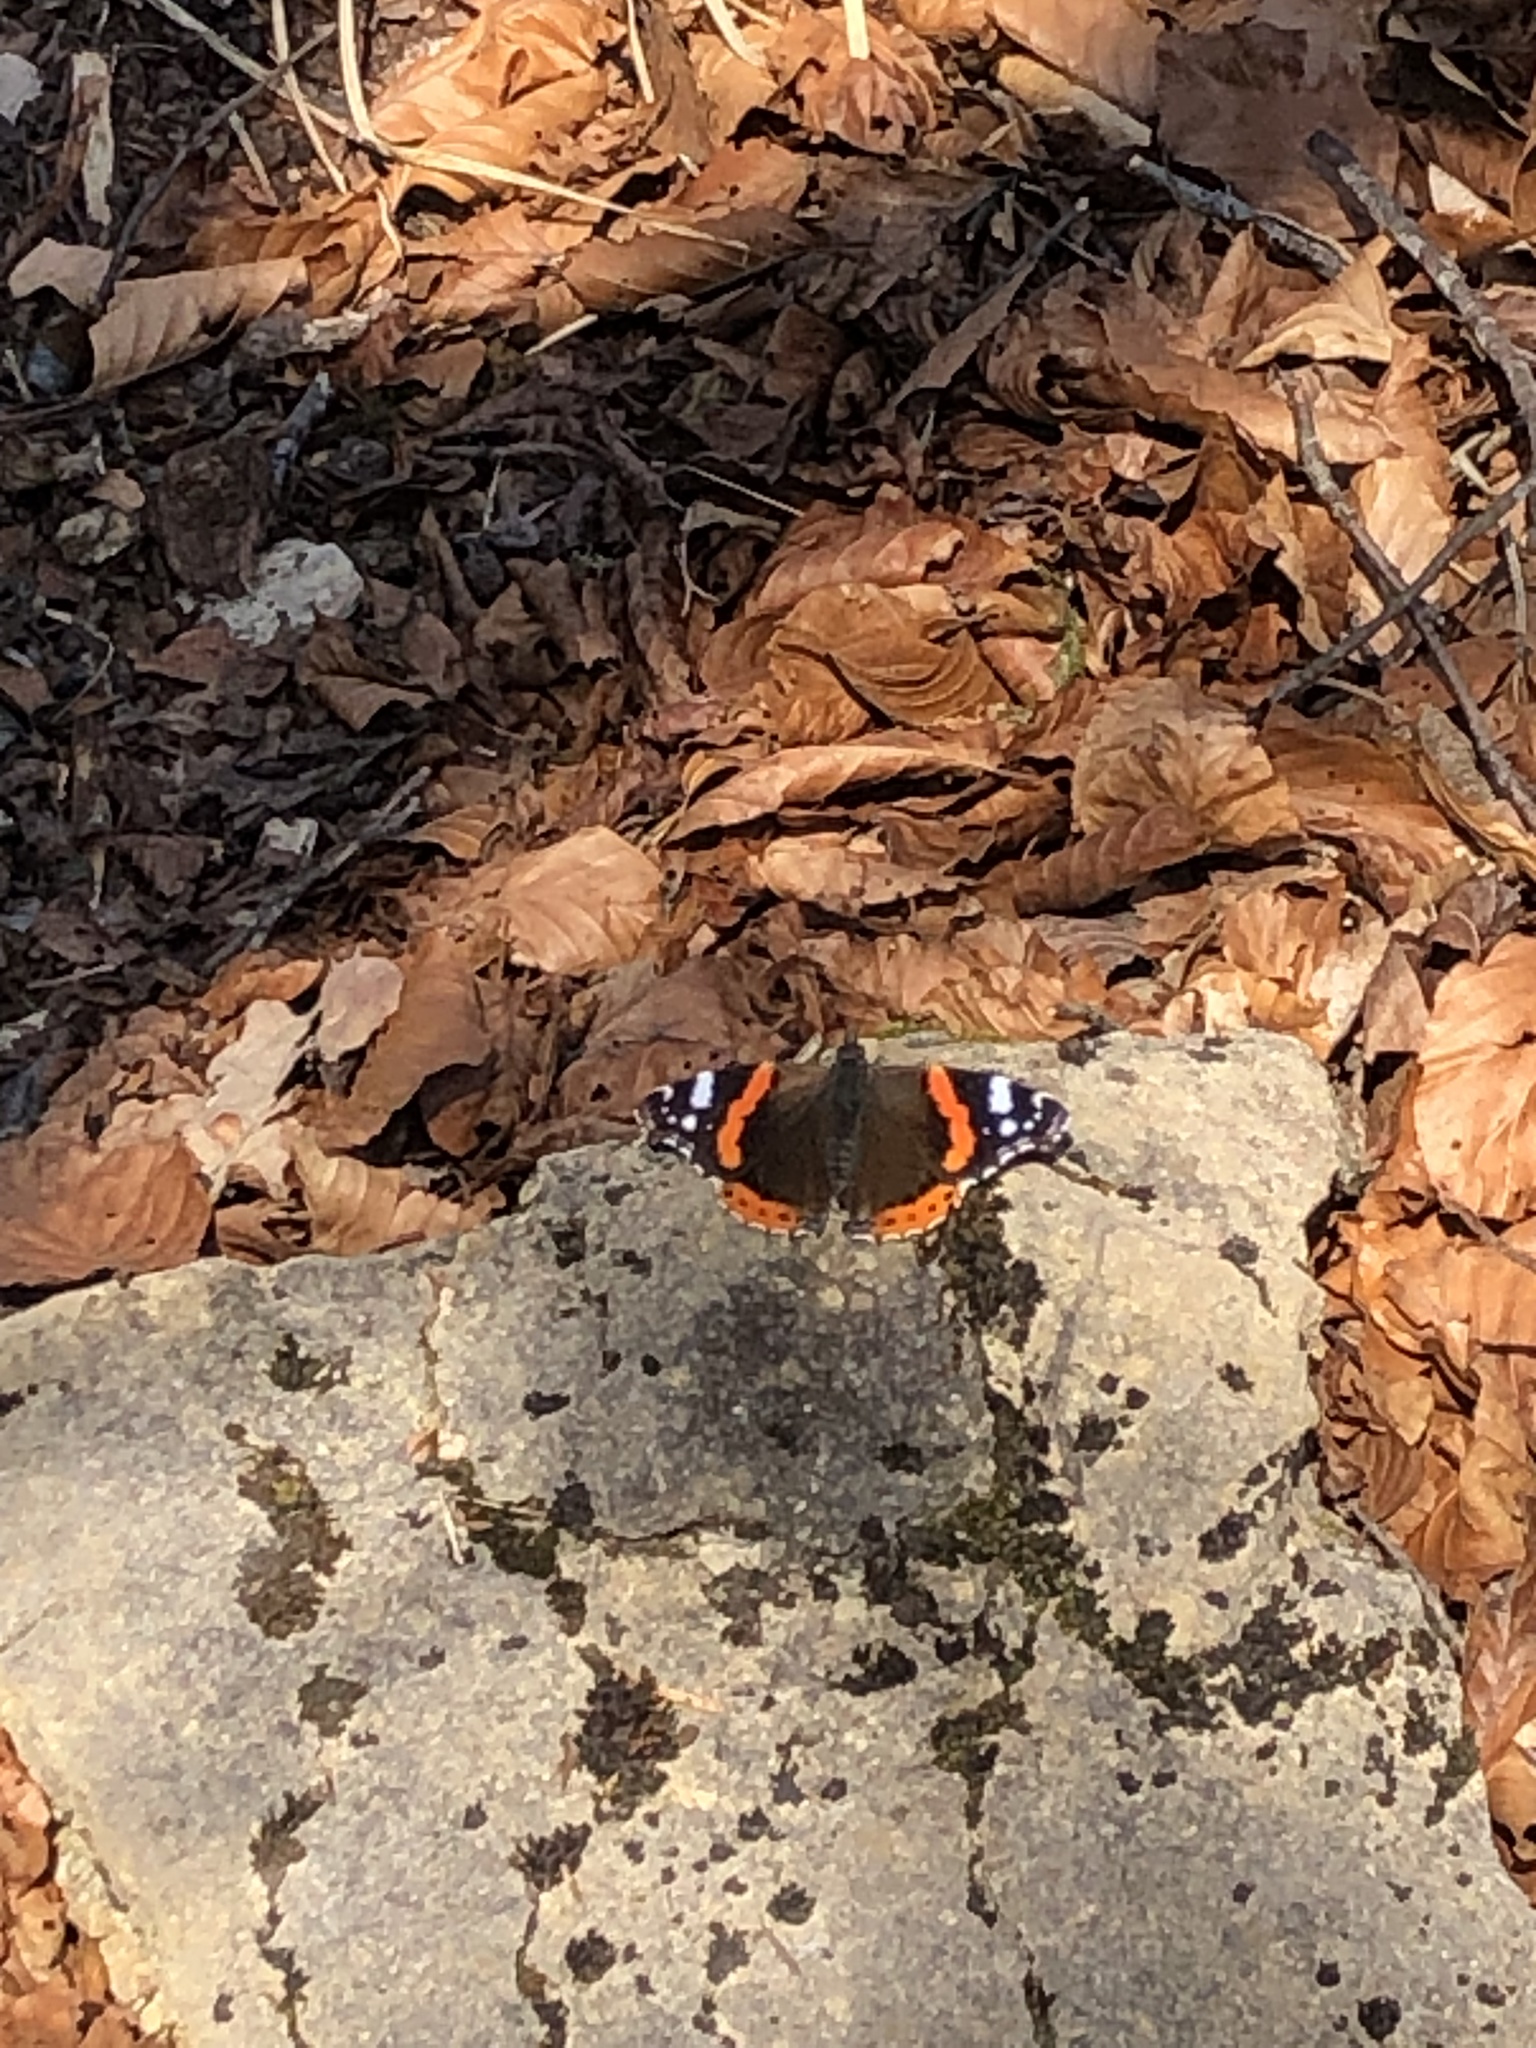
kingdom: Animalia
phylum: Arthropoda
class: Insecta
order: Lepidoptera
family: Nymphalidae
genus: Vanessa
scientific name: Vanessa atalanta
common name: Red admiral
